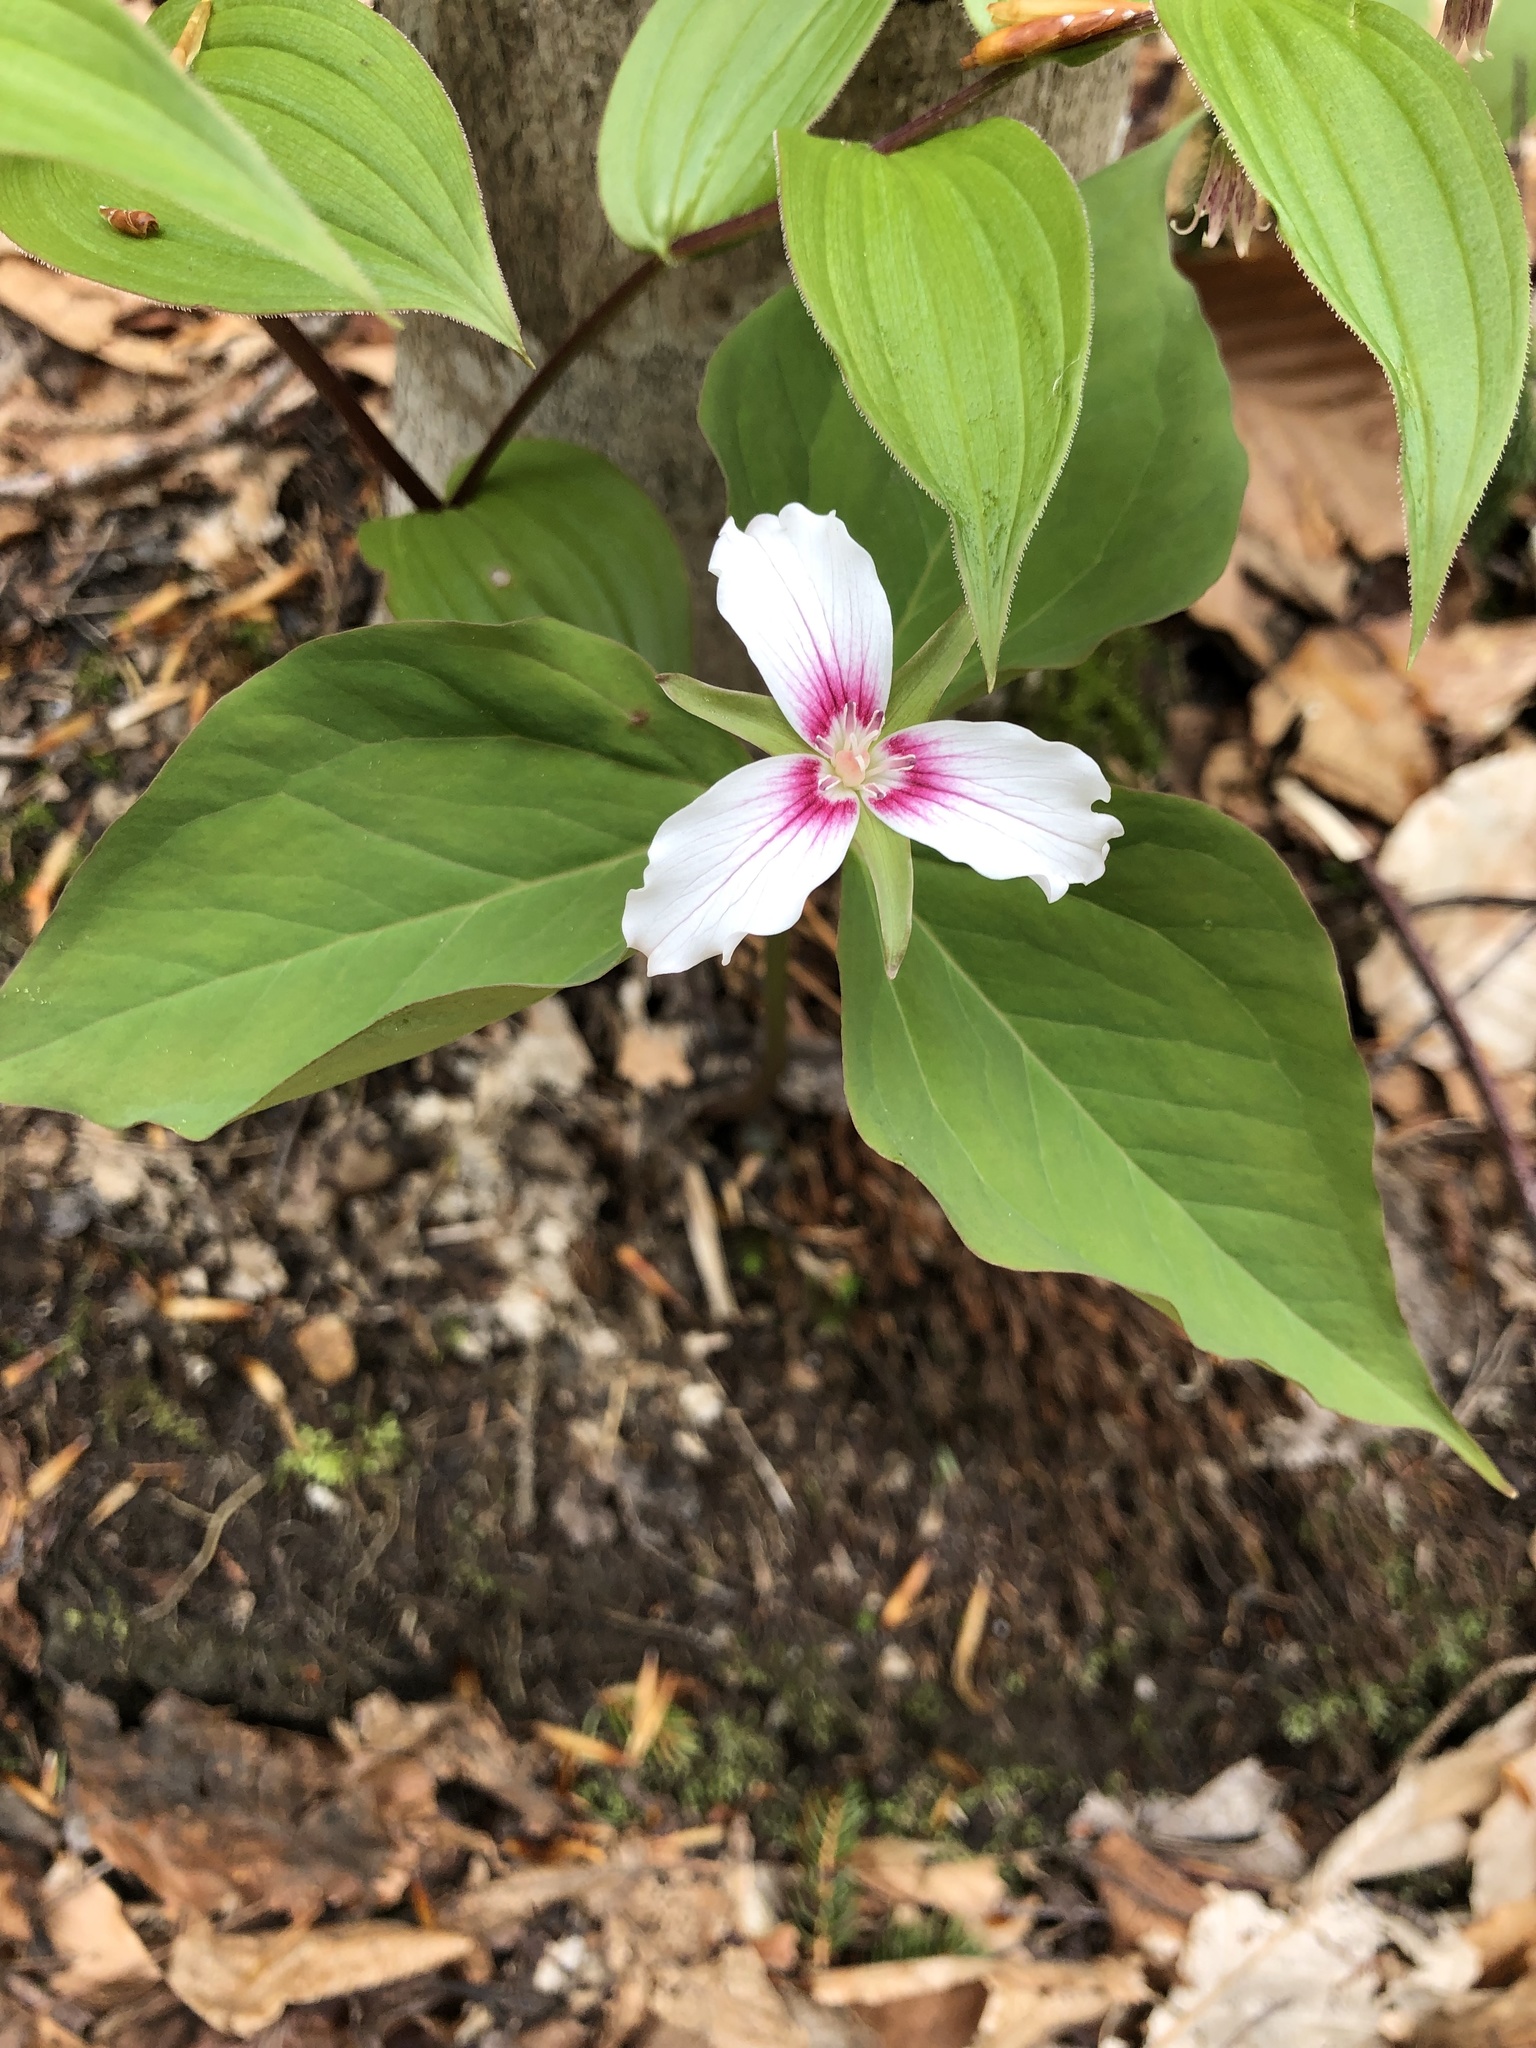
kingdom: Plantae
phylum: Tracheophyta
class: Liliopsida
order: Liliales
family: Melanthiaceae
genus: Trillium
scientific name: Trillium undulatum
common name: Paint trillium
